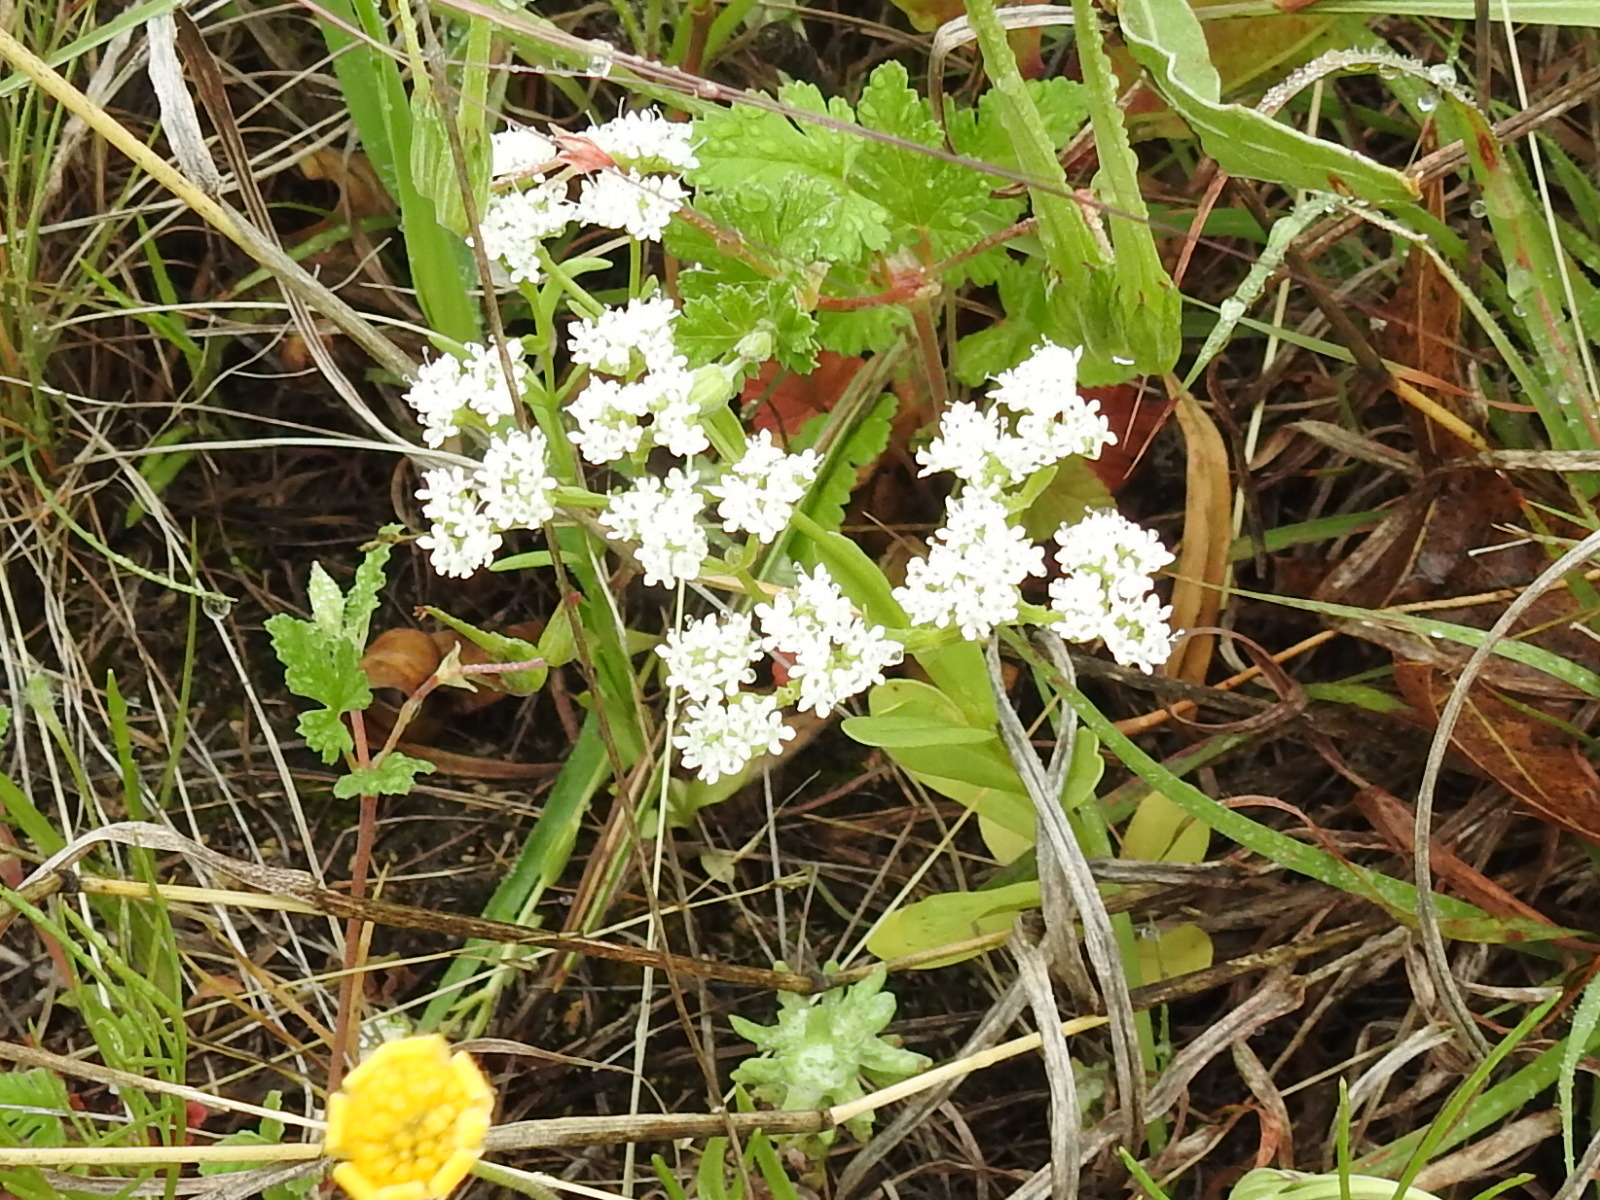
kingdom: Plantae
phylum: Tracheophyta
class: Magnoliopsida
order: Dipsacales
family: Caprifoliaceae
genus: Valerianella
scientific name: Valerianella amarella
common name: Hariy cornsalad
